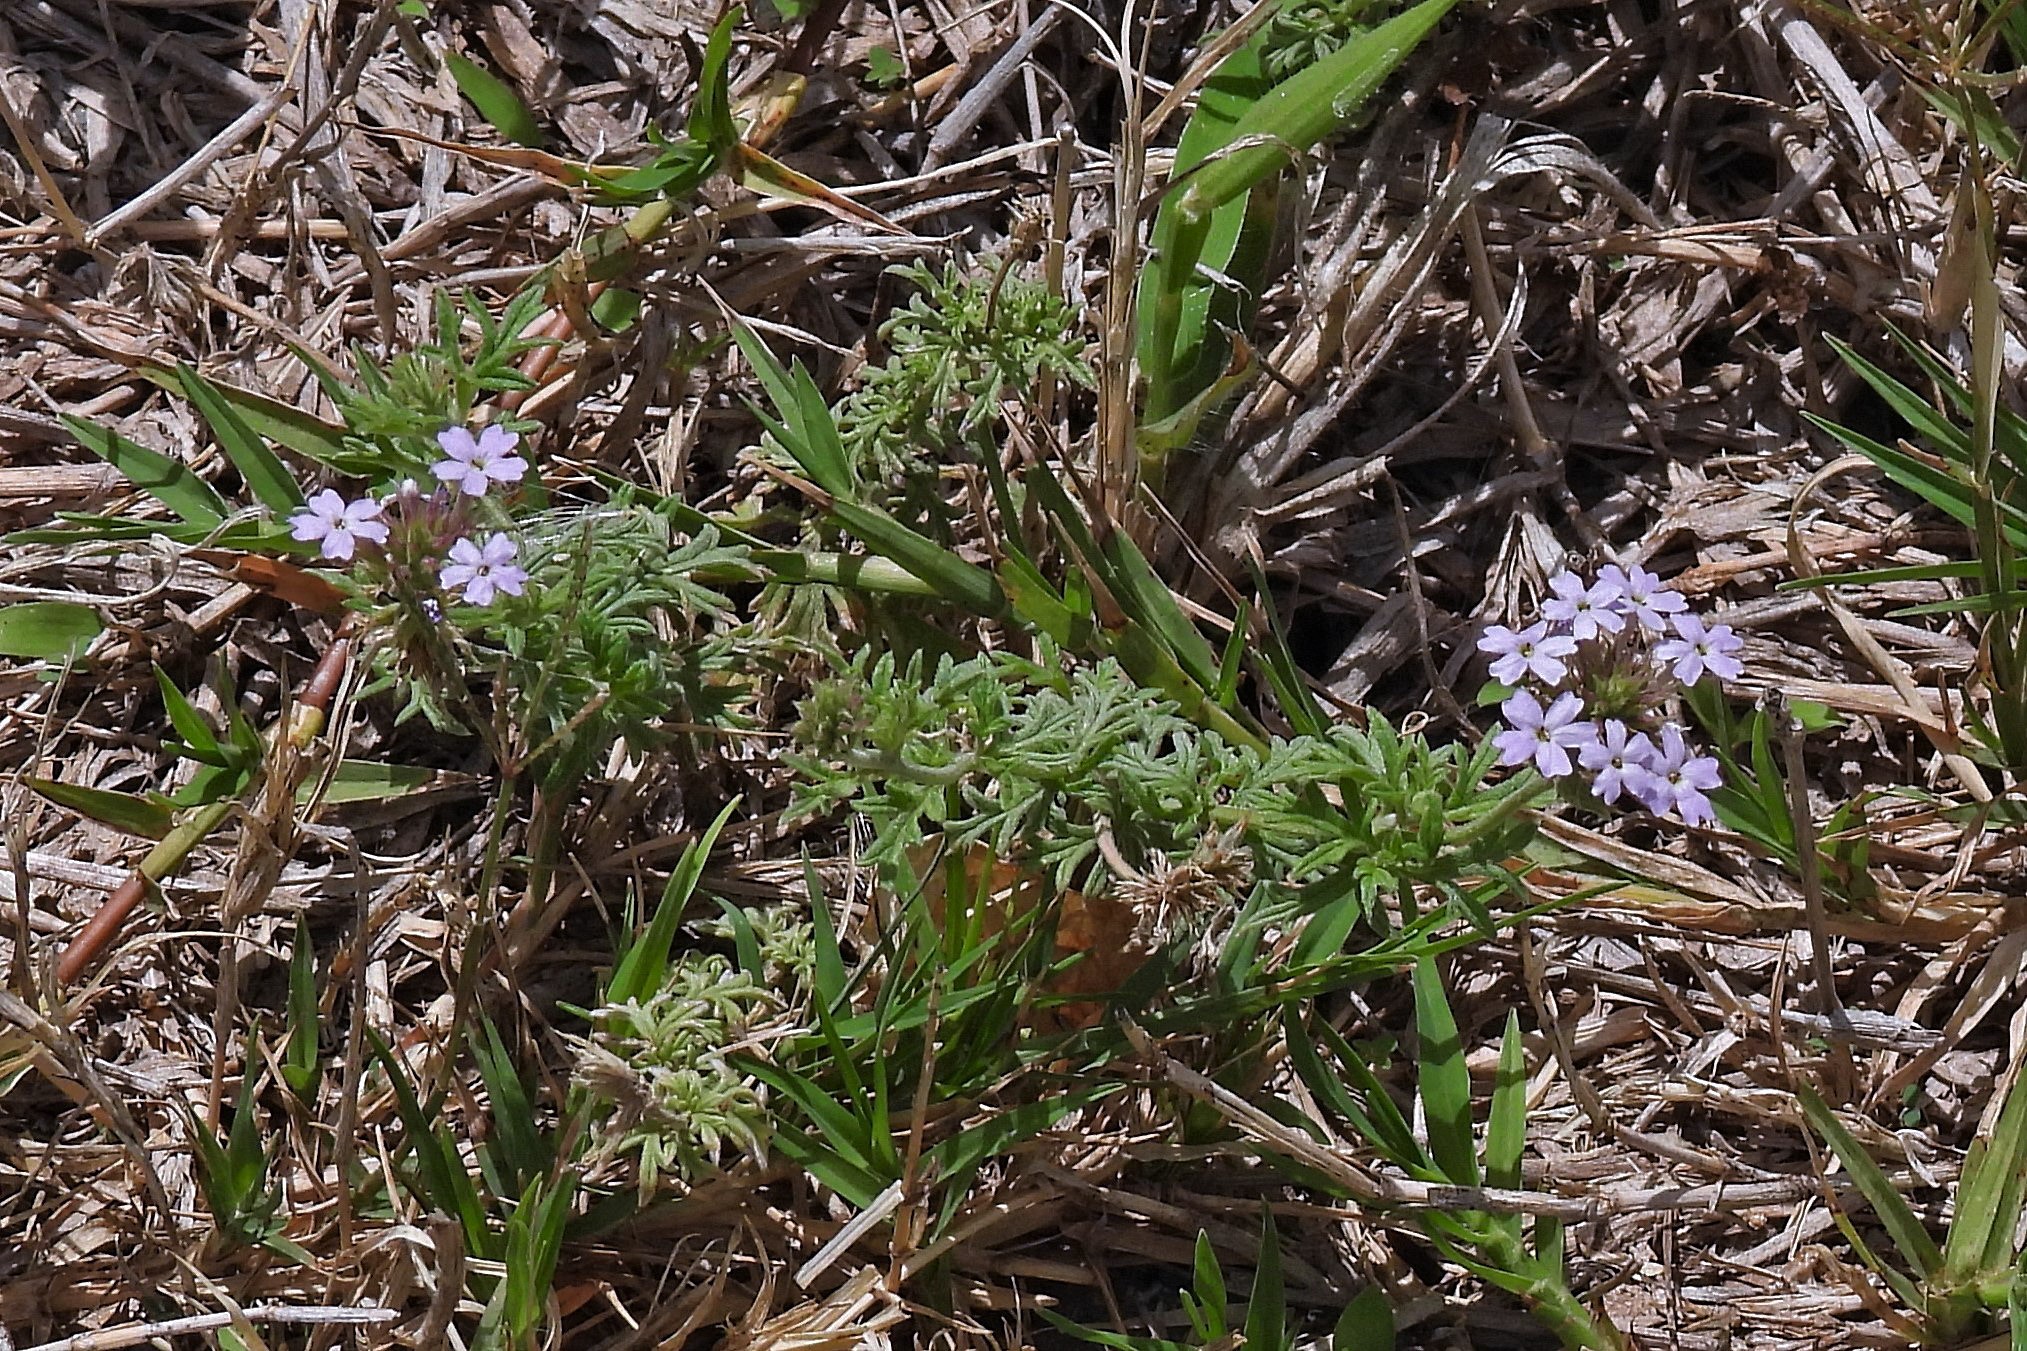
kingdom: Plantae
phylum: Tracheophyta
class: Magnoliopsida
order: Lamiales
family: Verbenaceae
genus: Verbena
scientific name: Verbena tenera
